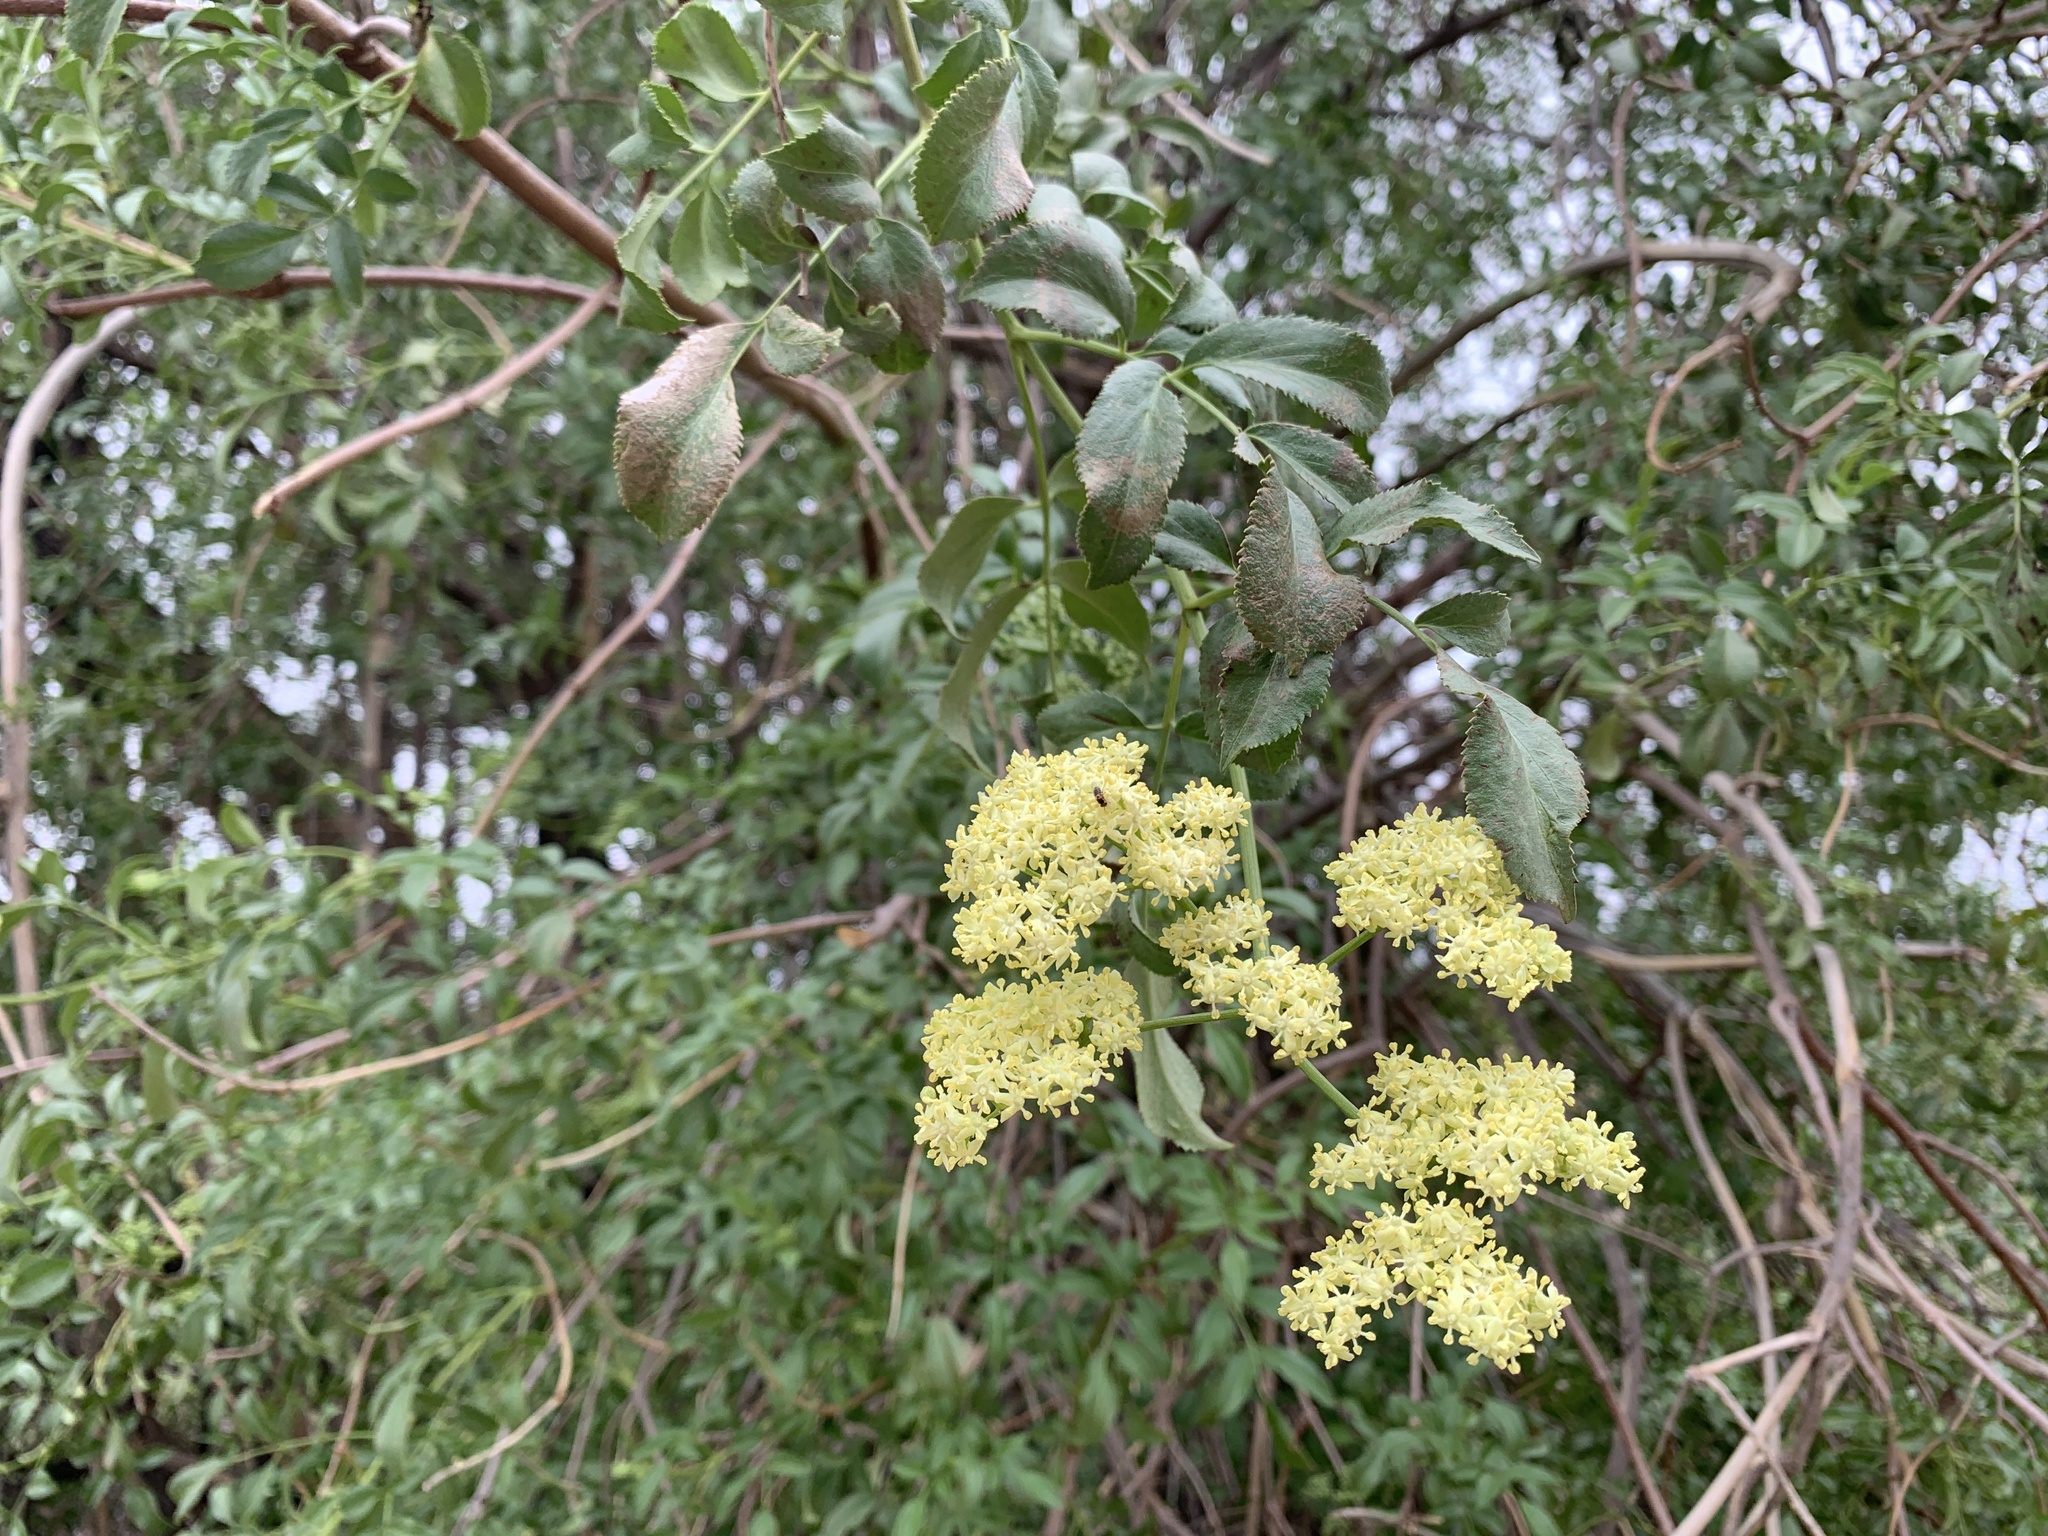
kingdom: Plantae
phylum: Tracheophyta
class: Magnoliopsida
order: Dipsacales
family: Viburnaceae
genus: Sambucus
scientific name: Sambucus cerulea
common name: Blue elder
